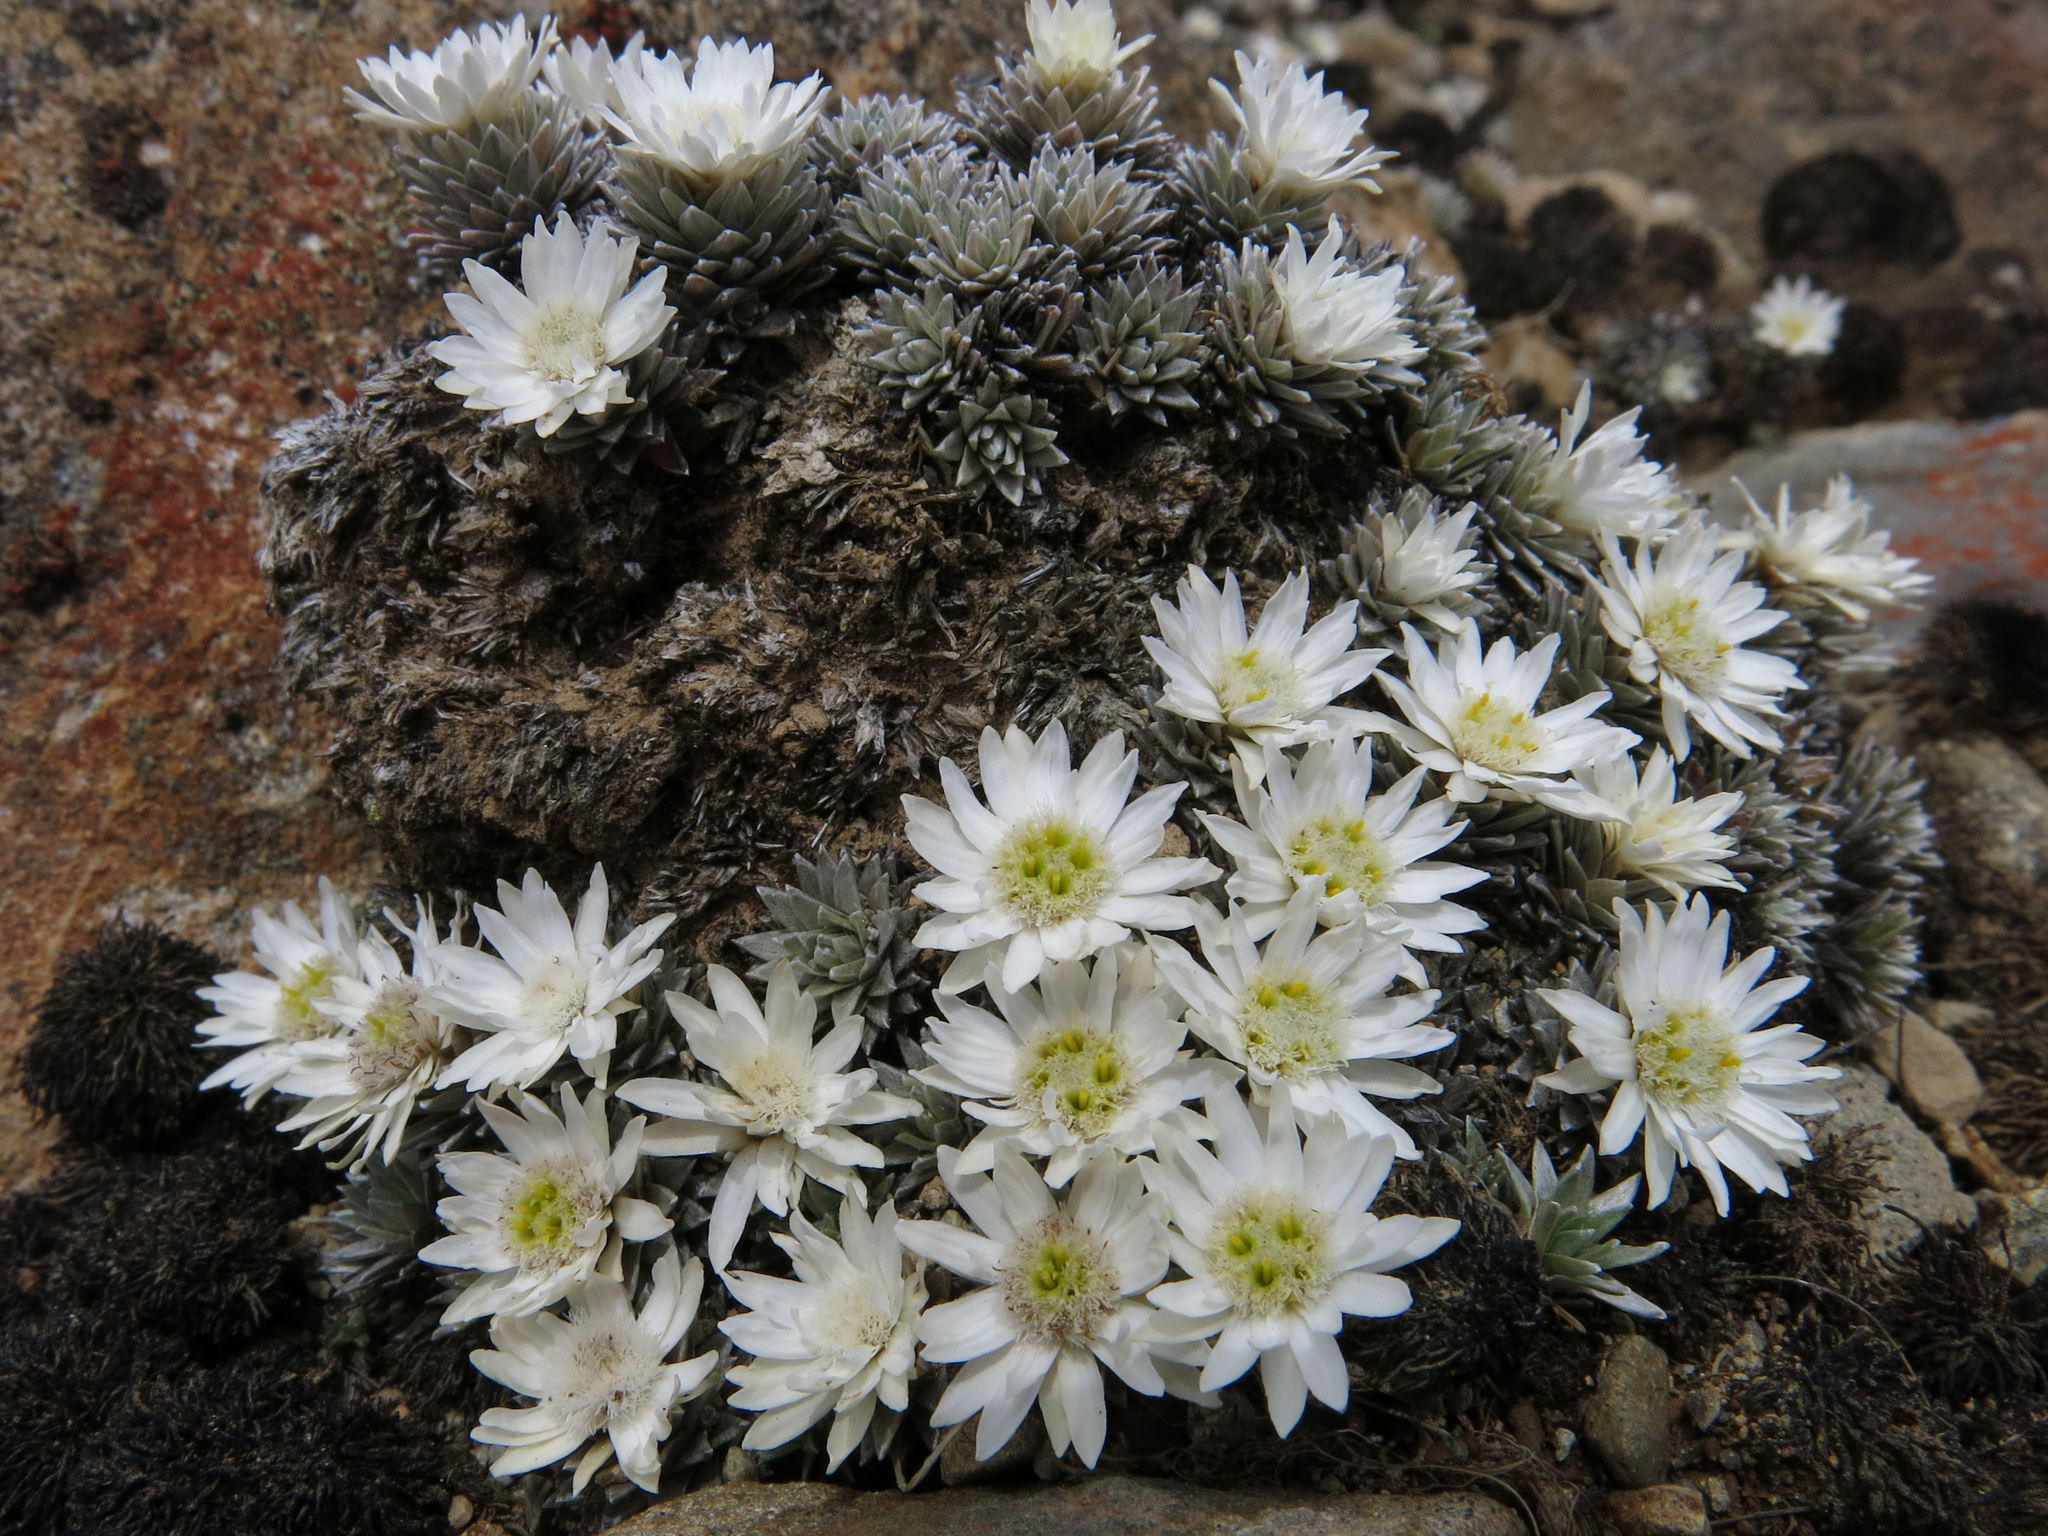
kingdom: Plantae
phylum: Tracheophyta
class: Magnoliopsida
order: Asterales
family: Asteraceae
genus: Raoulia
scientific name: Raoulia grandiflora
